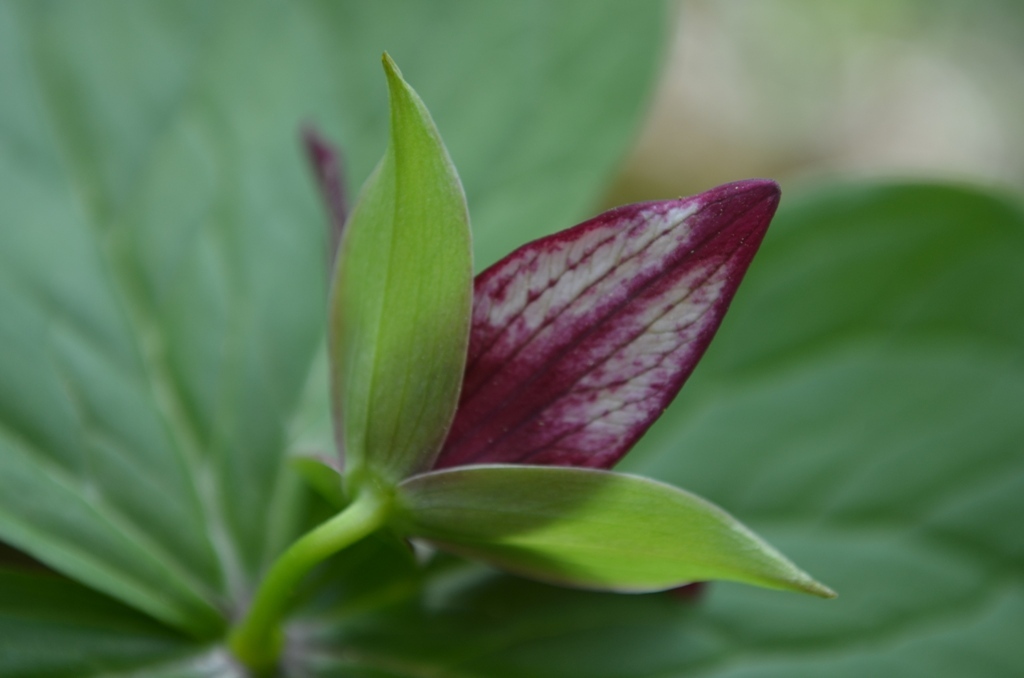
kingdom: Plantae
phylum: Tracheophyta
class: Liliopsida
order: Liliales
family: Melanthiaceae
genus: Trillium
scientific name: Trillium erectum
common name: Purple trillium
